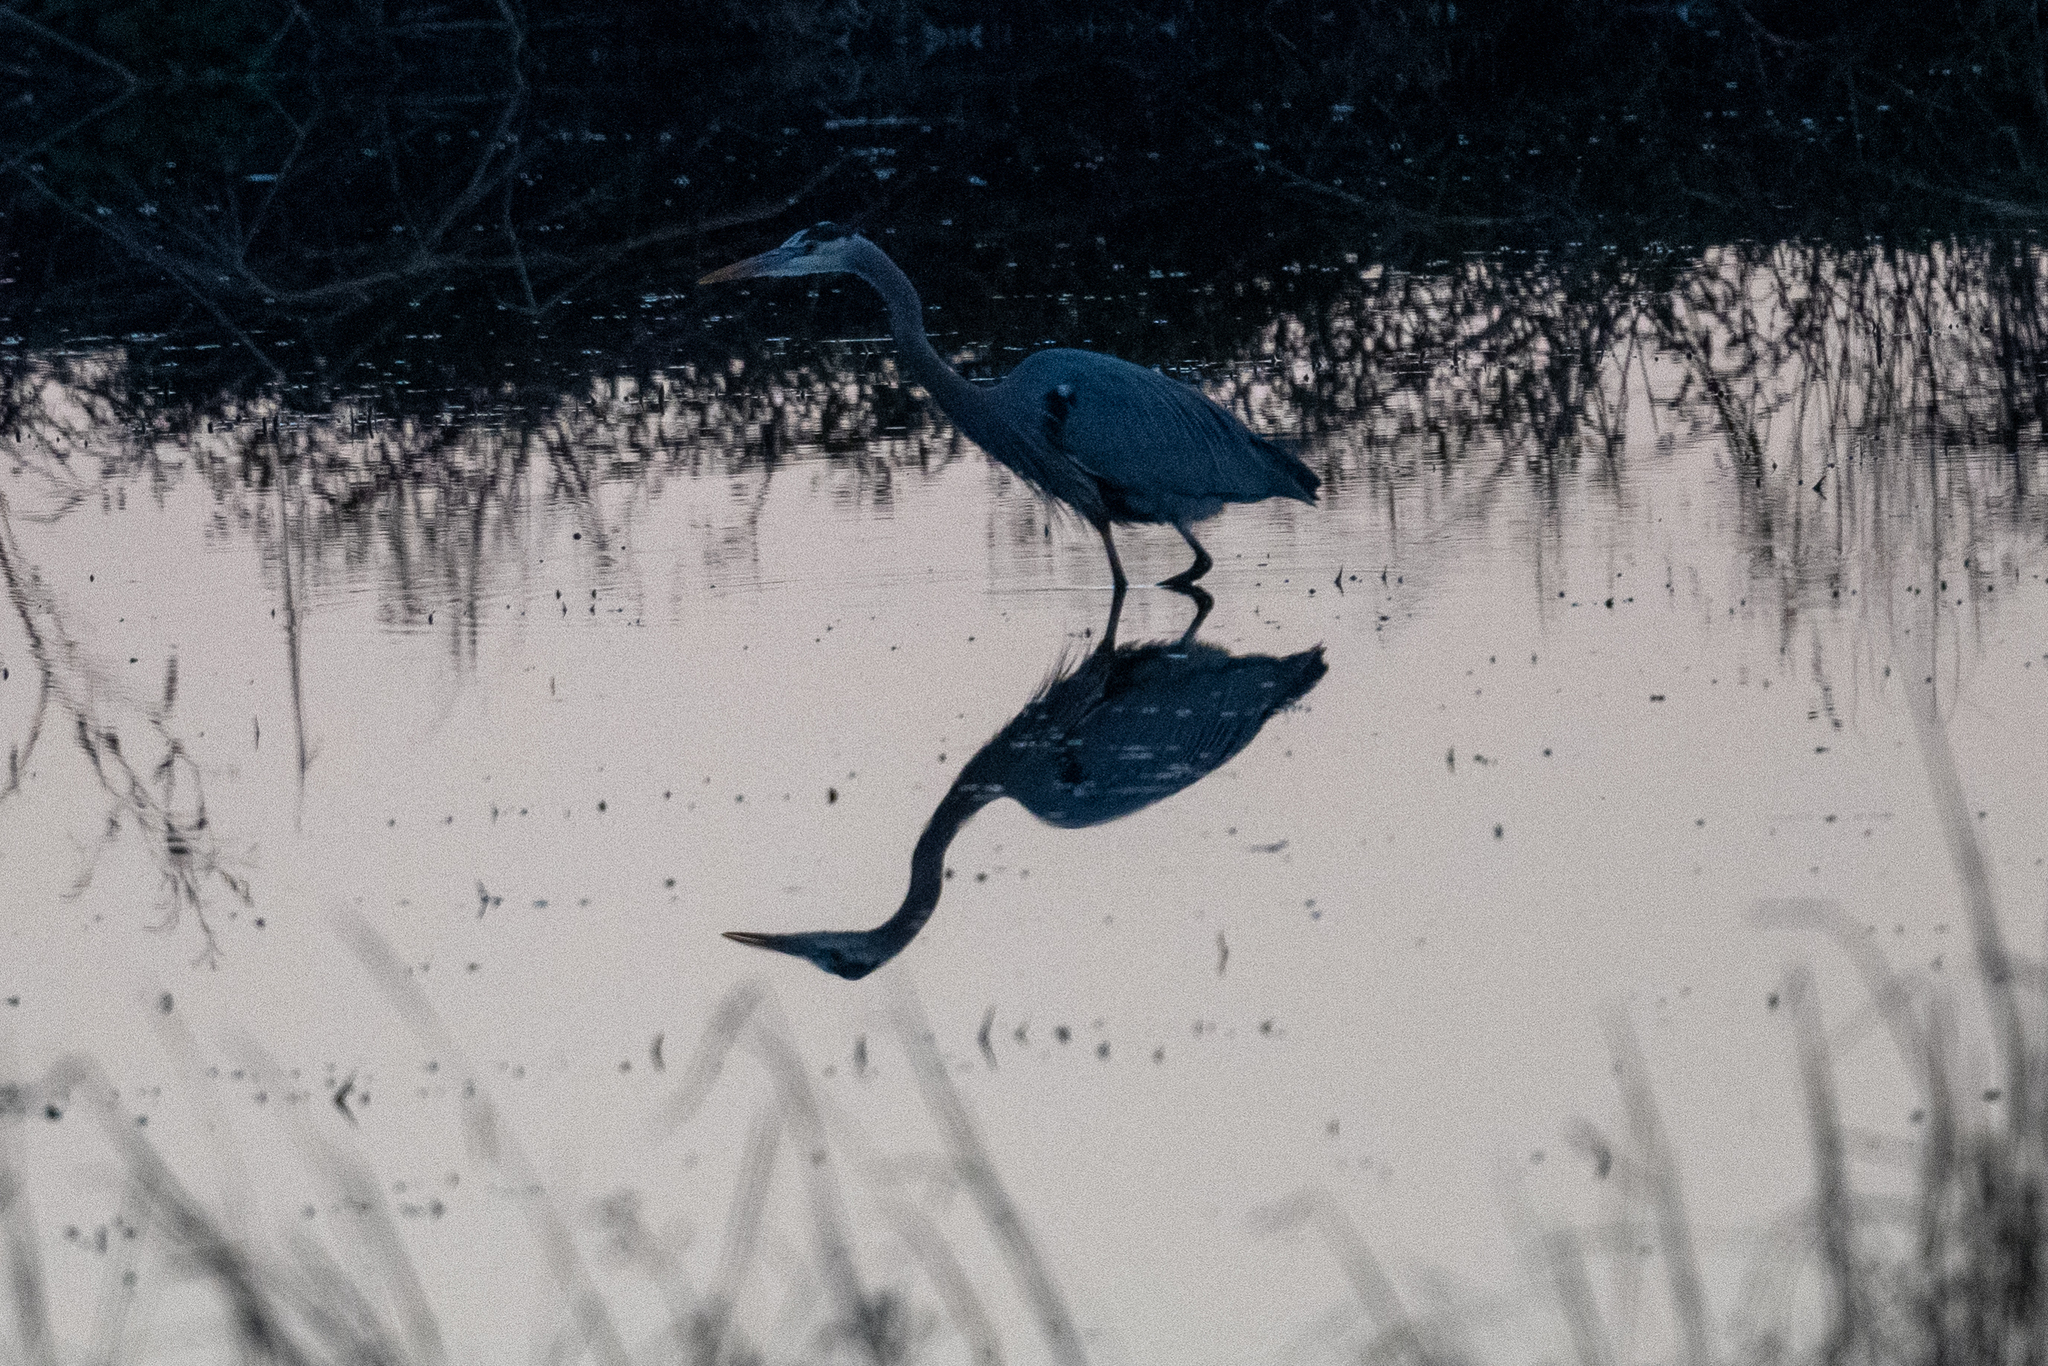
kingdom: Animalia
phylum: Chordata
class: Aves
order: Pelecaniformes
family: Ardeidae
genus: Ardea
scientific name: Ardea herodias
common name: Great blue heron
